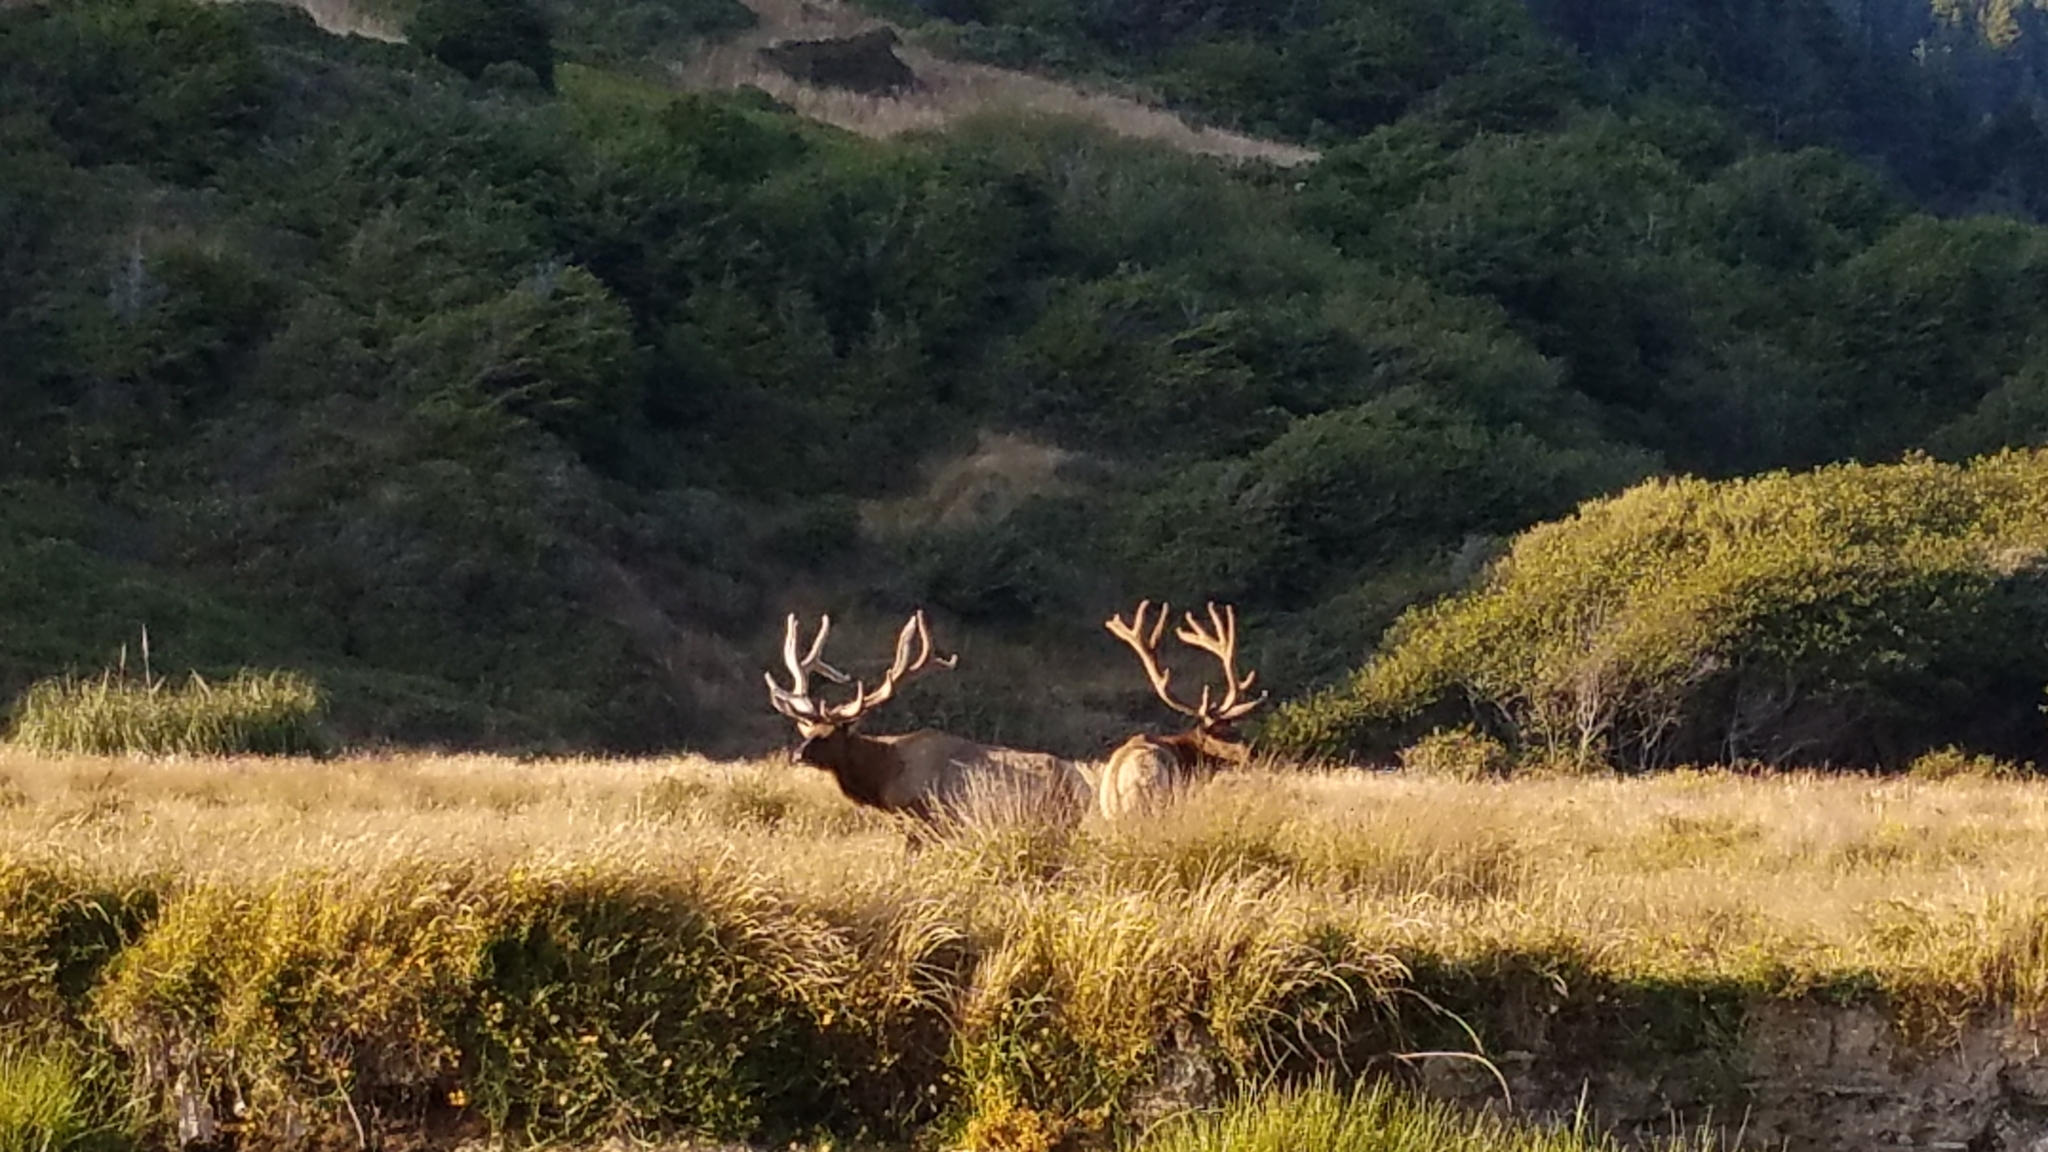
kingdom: Animalia
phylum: Chordata
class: Mammalia
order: Artiodactyla
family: Cervidae
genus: Cervus
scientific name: Cervus elaphus
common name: Red deer
